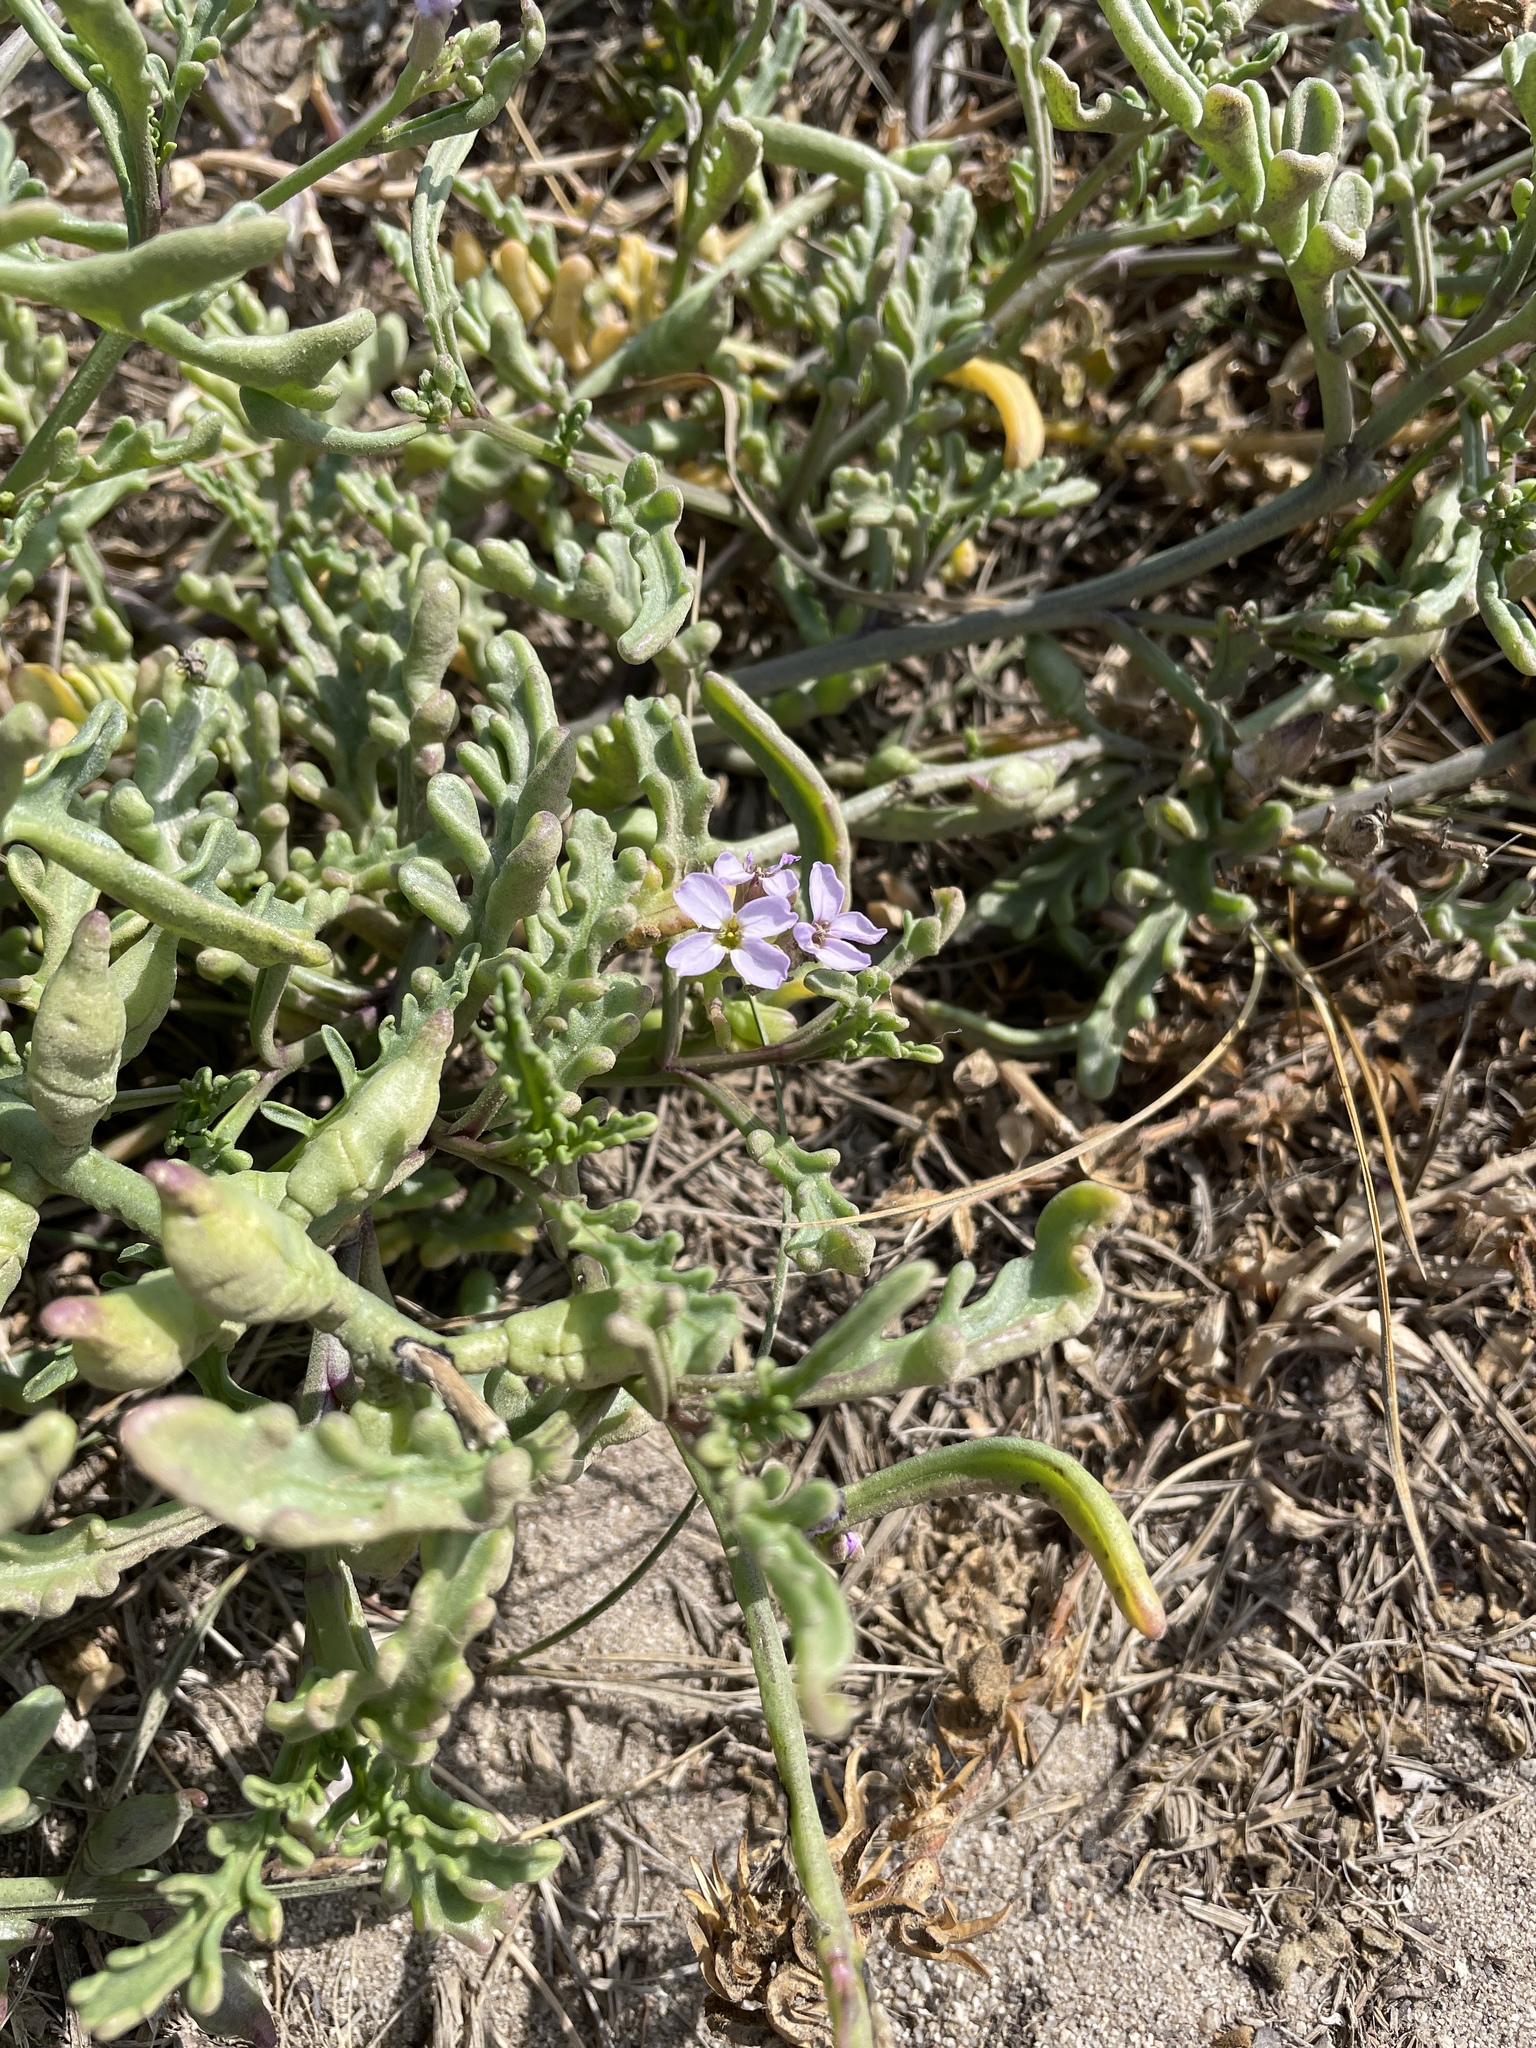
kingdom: Plantae
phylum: Tracheophyta
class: Magnoliopsida
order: Brassicales
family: Brassicaceae
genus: Cakile
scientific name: Cakile maritima
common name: Sea rocket
